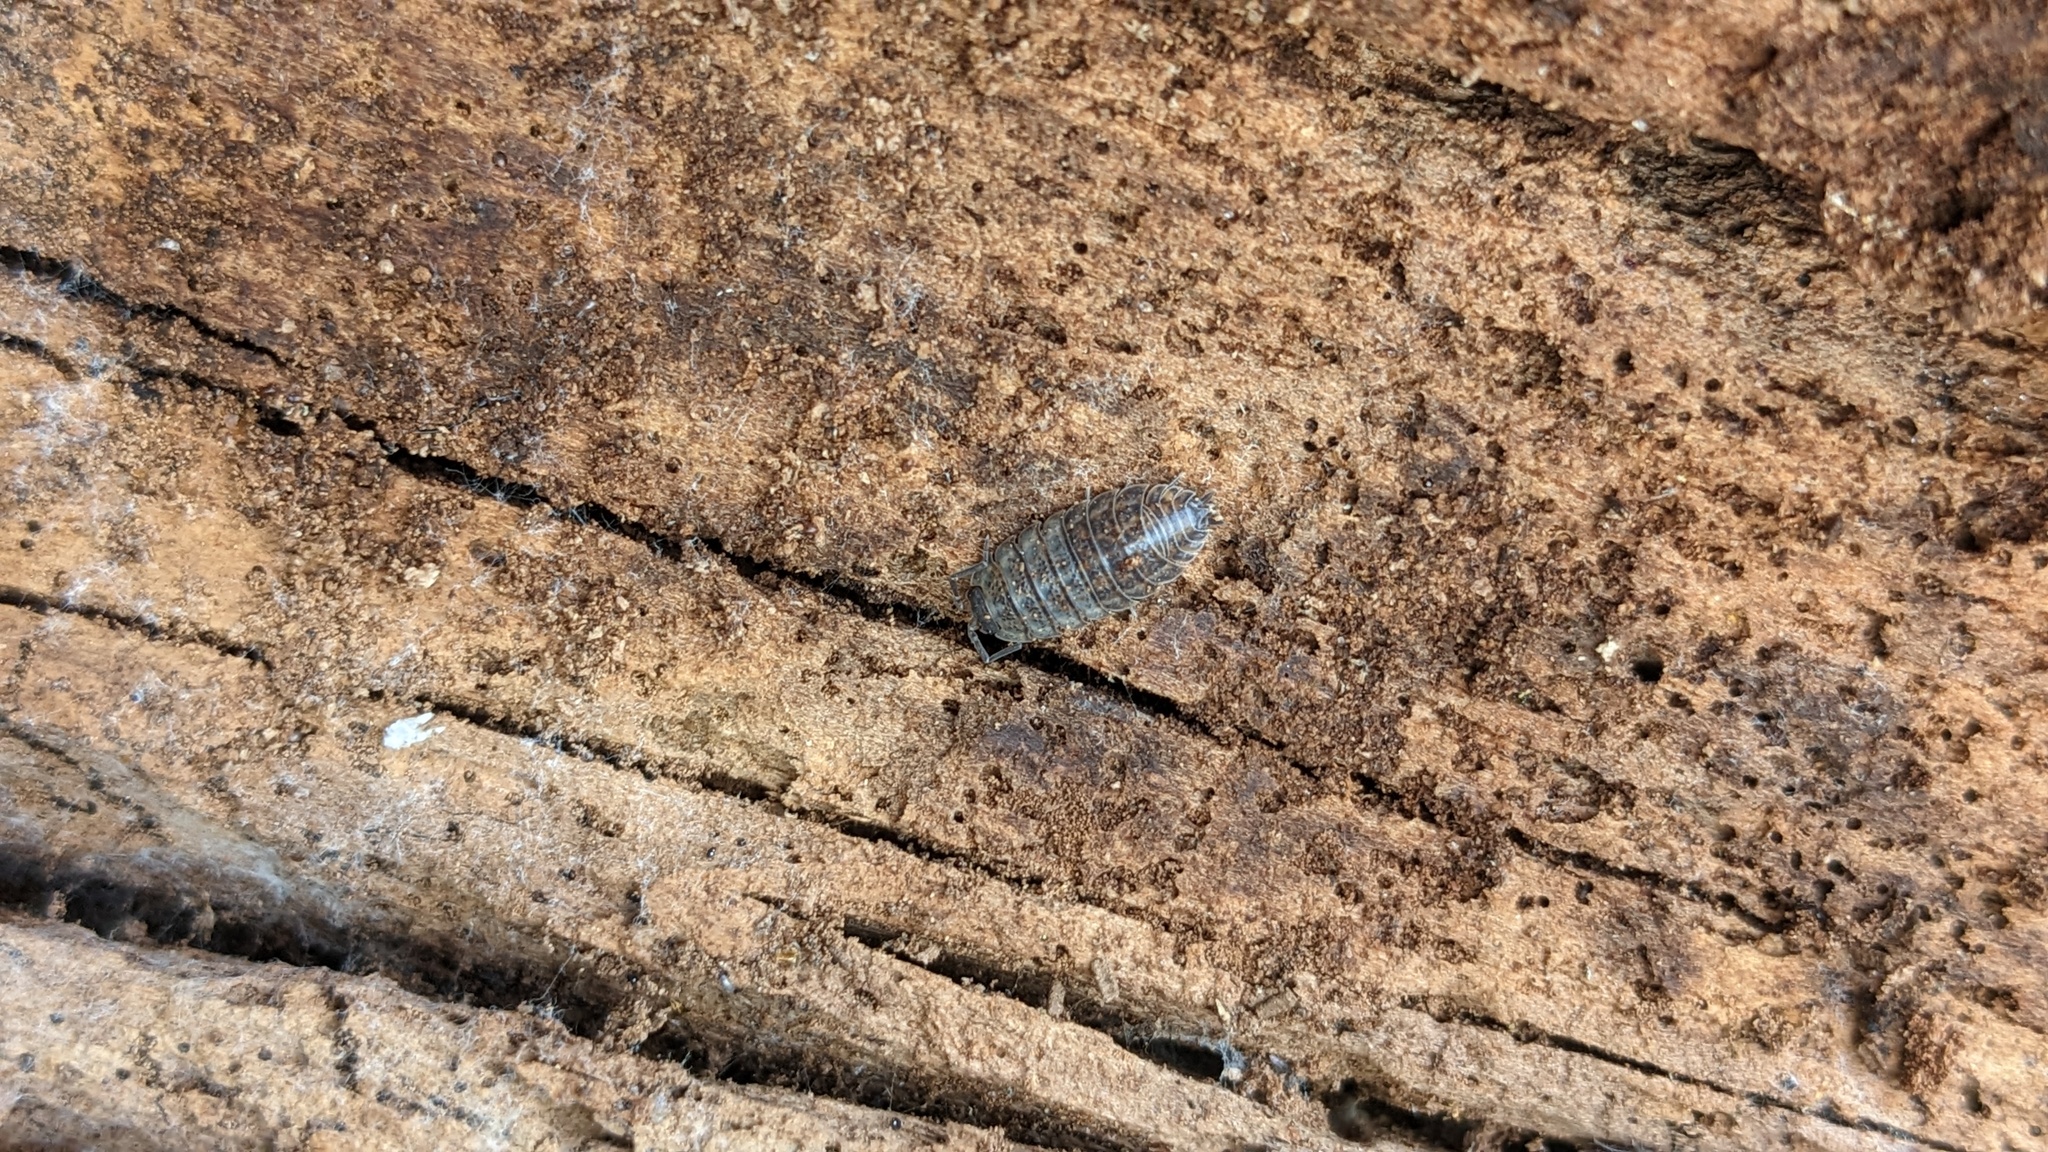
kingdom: Animalia
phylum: Arthropoda
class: Malacostraca
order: Isopoda
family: Trachelipodidae
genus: Trachelipus
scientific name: Trachelipus rathkii
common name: Isopod
